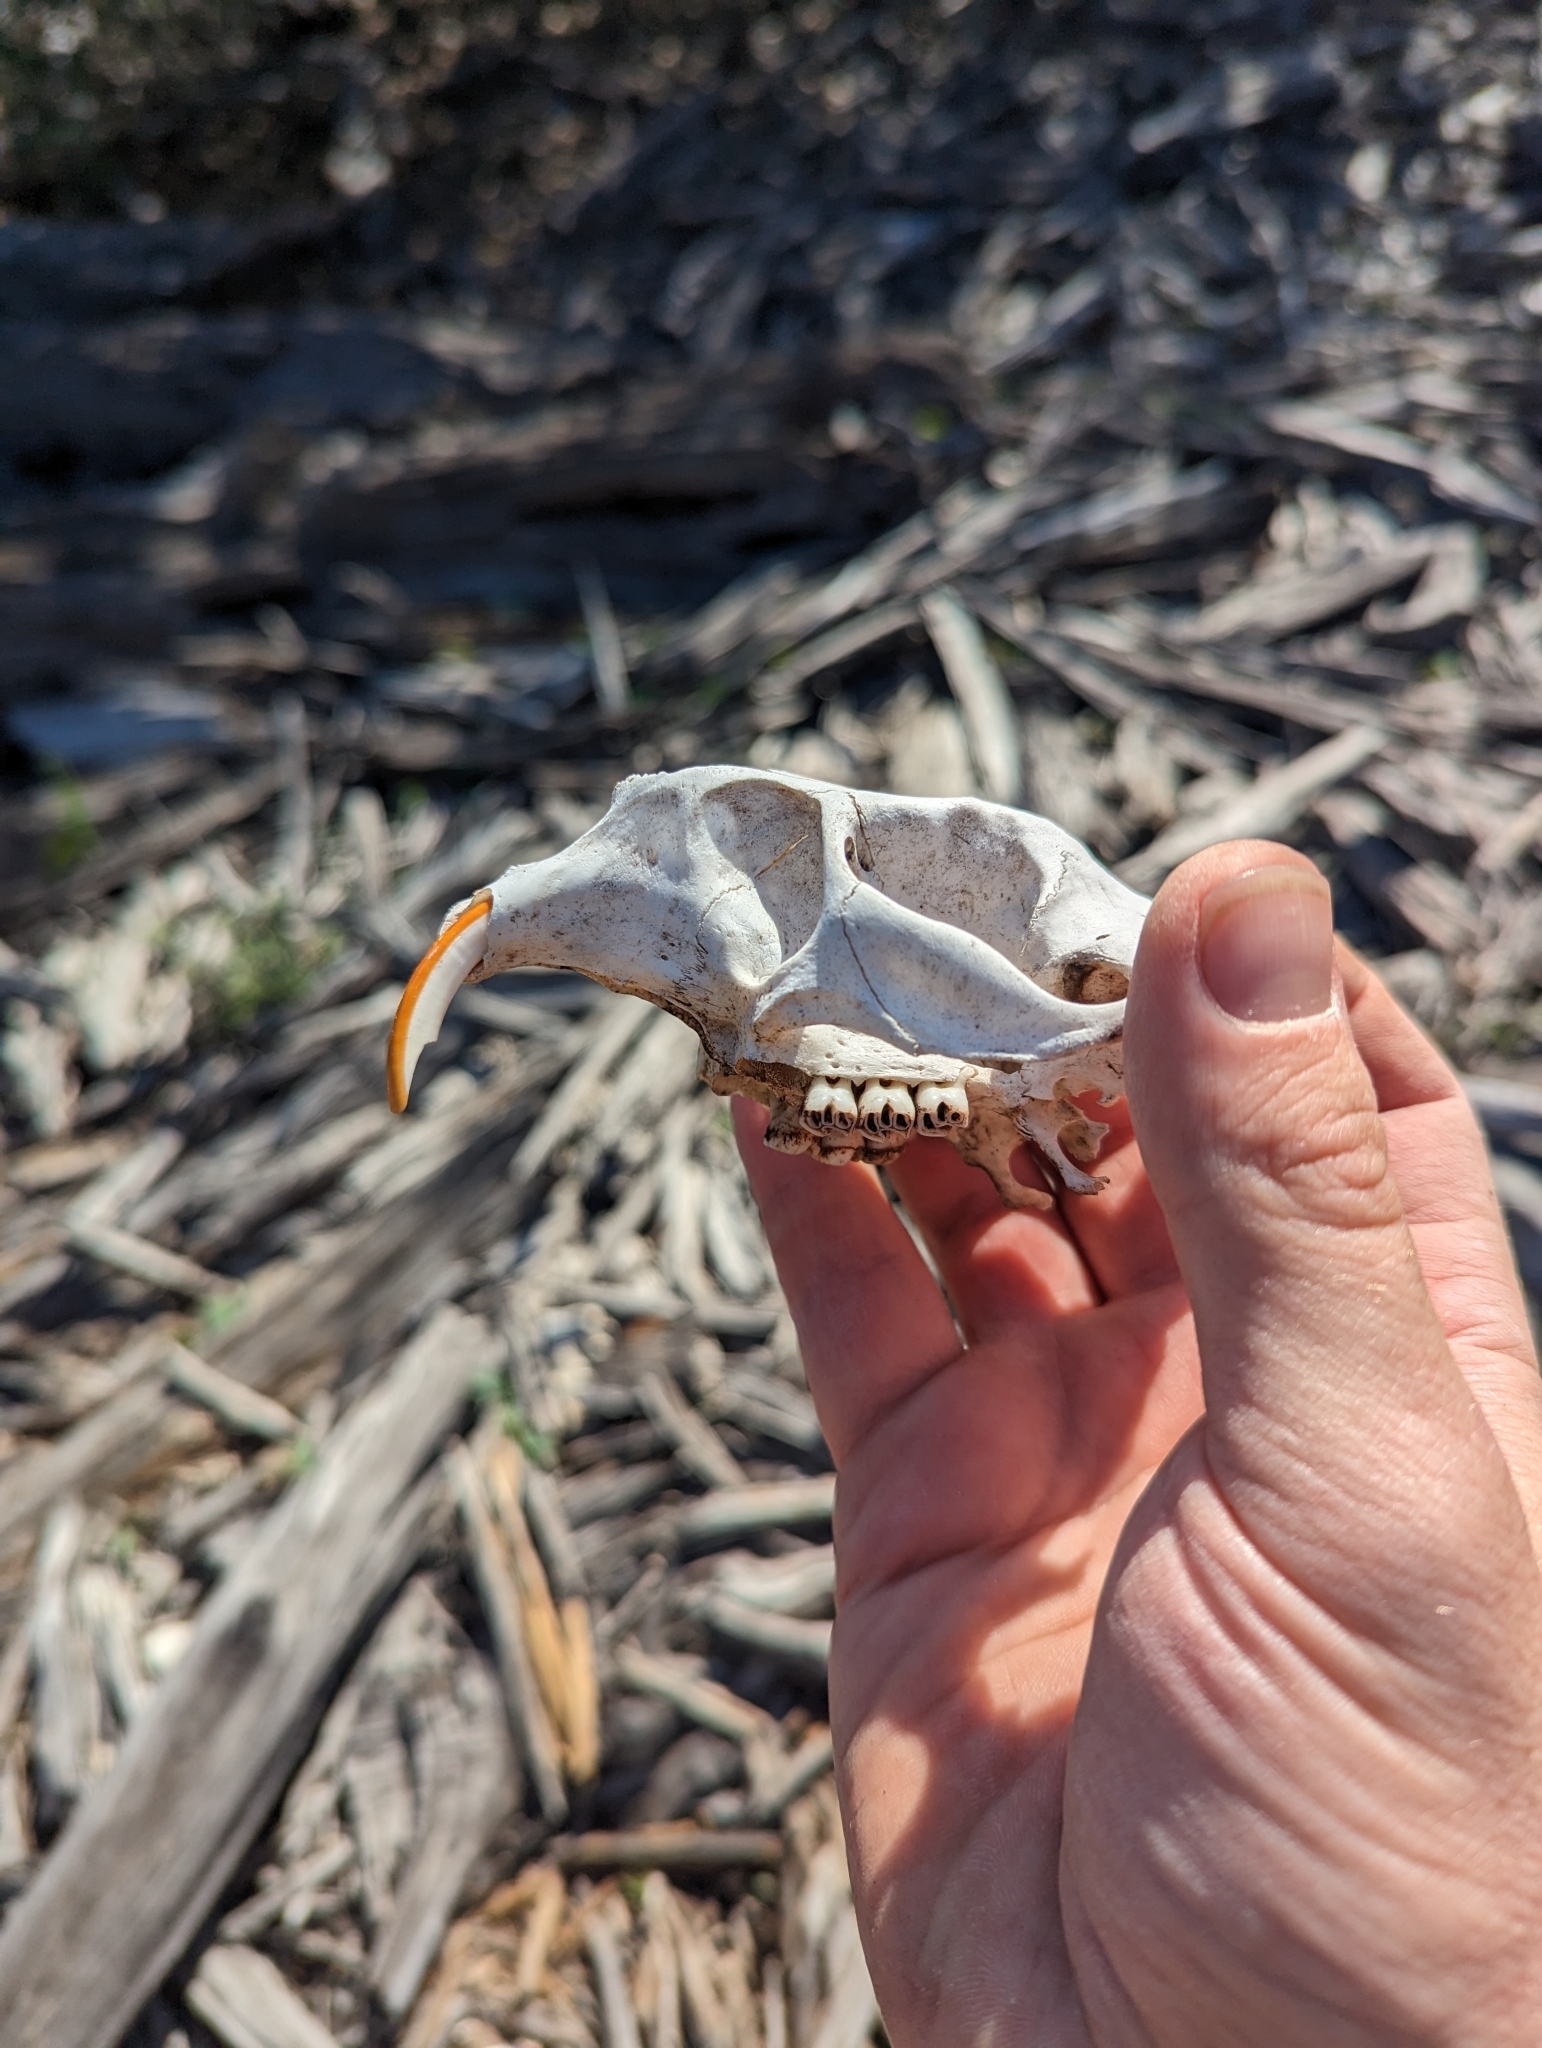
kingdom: Animalia
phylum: Chordata
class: Mammalia
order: Rodentia
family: Erethizontidae
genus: Erethizon
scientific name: Erethizon dorsatus
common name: North american porcupine
